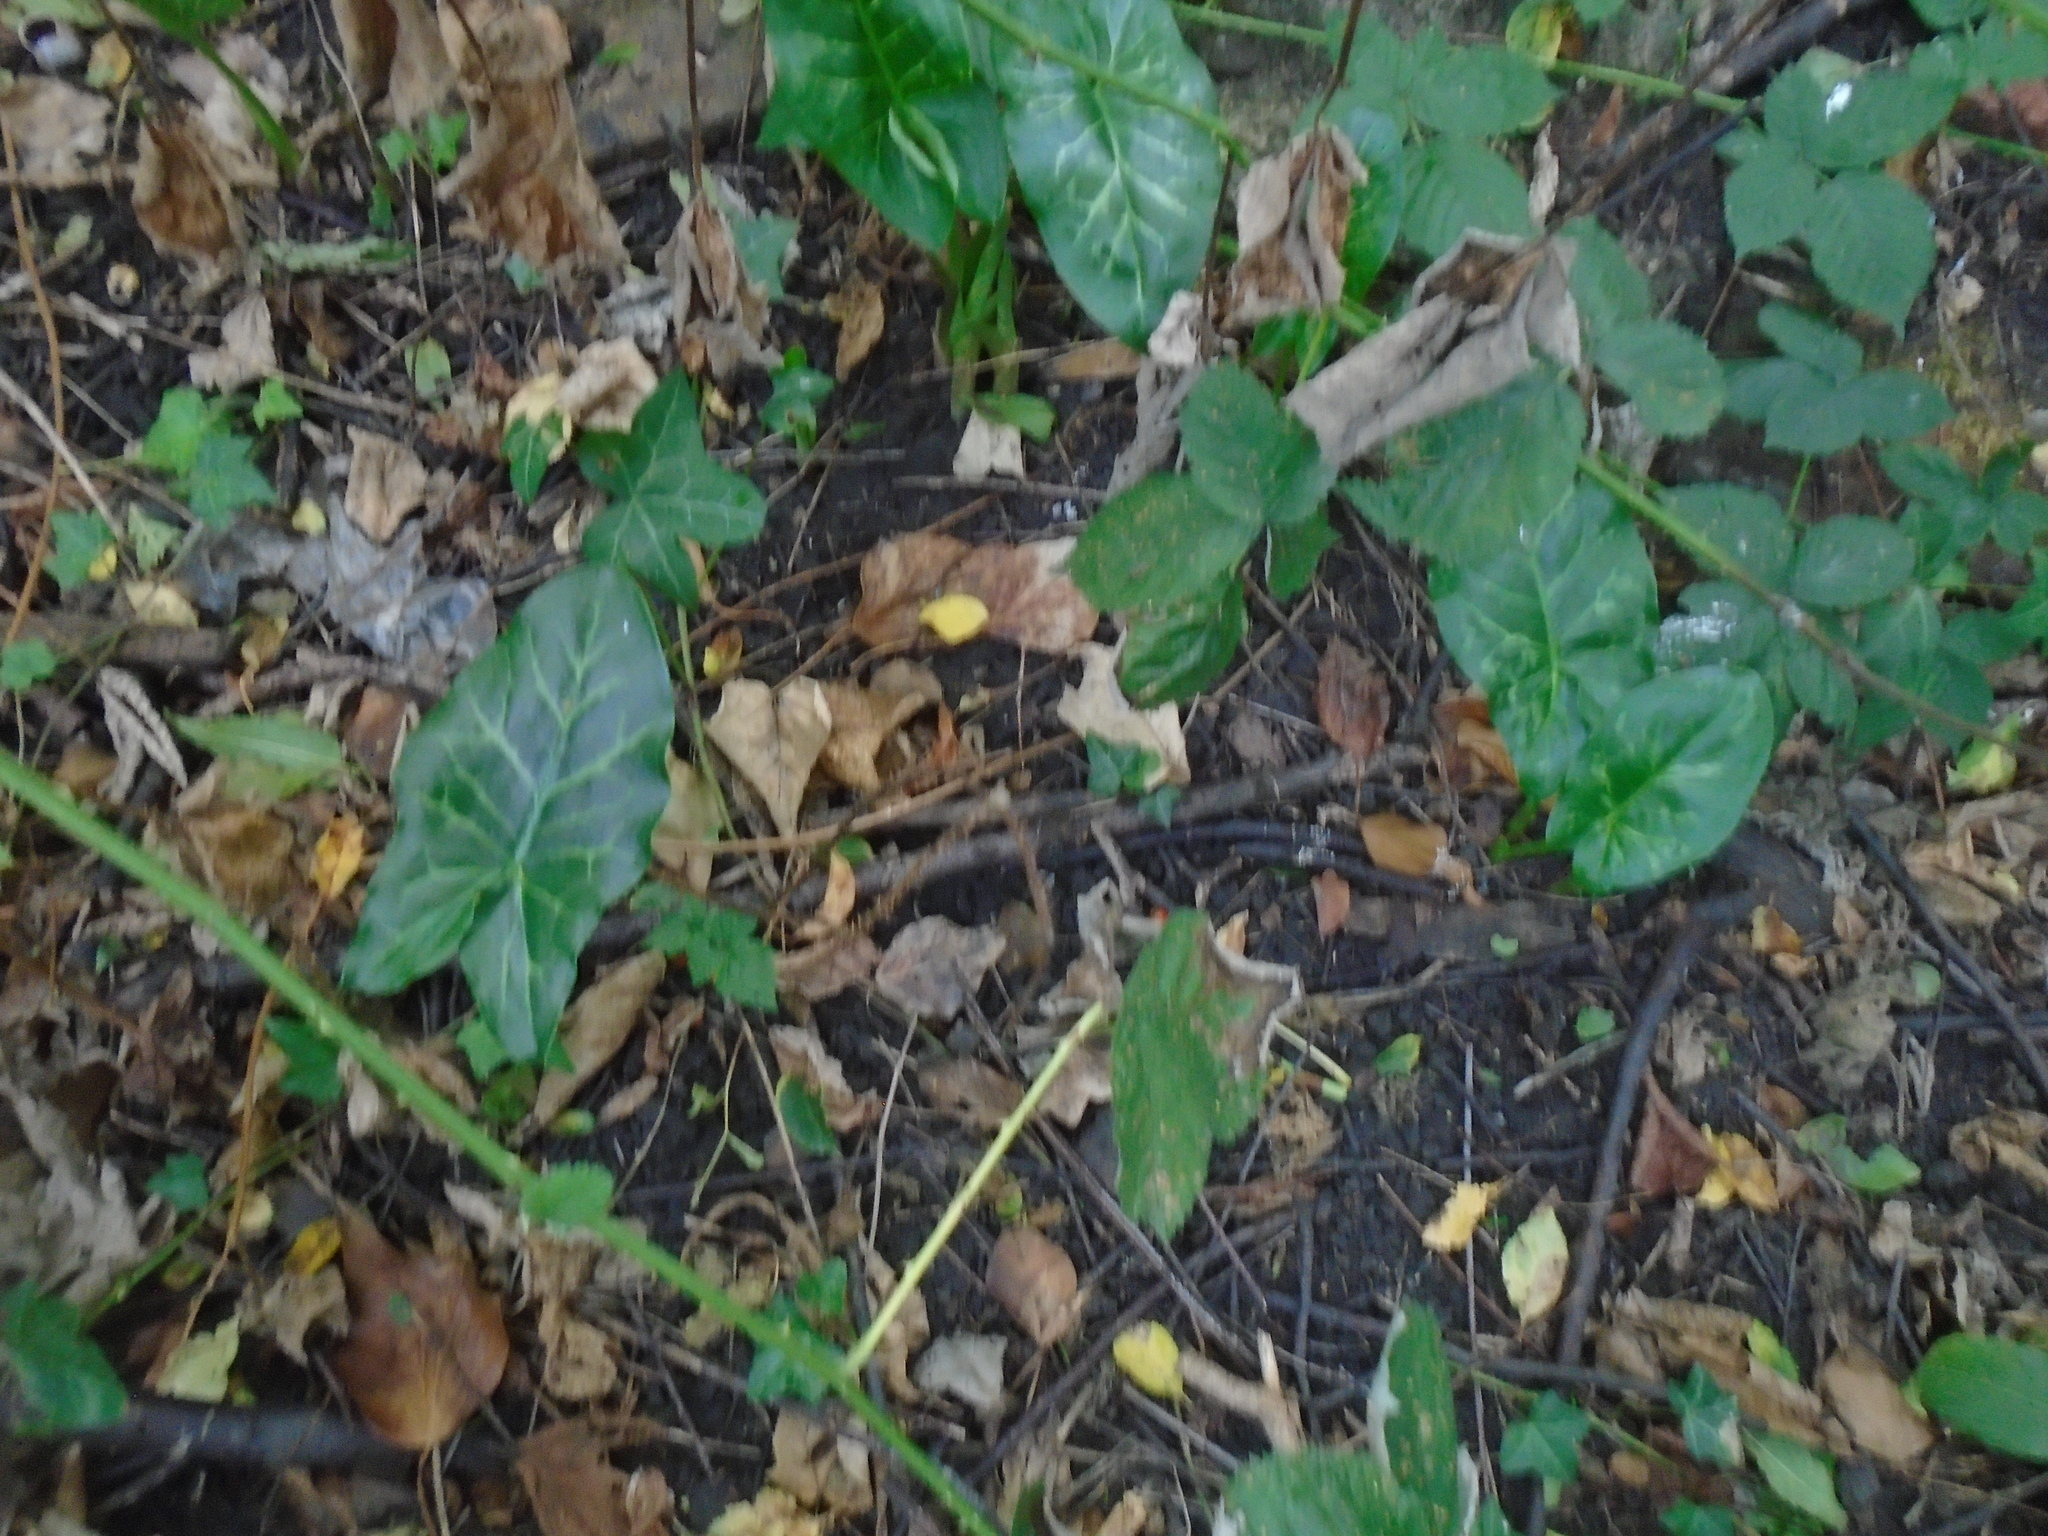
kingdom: Plantae
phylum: Tracheophyta
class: Liliopsida
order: Alismatales
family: Araceae
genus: Arum
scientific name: Arum italicum
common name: Italian lords-and-ladies
